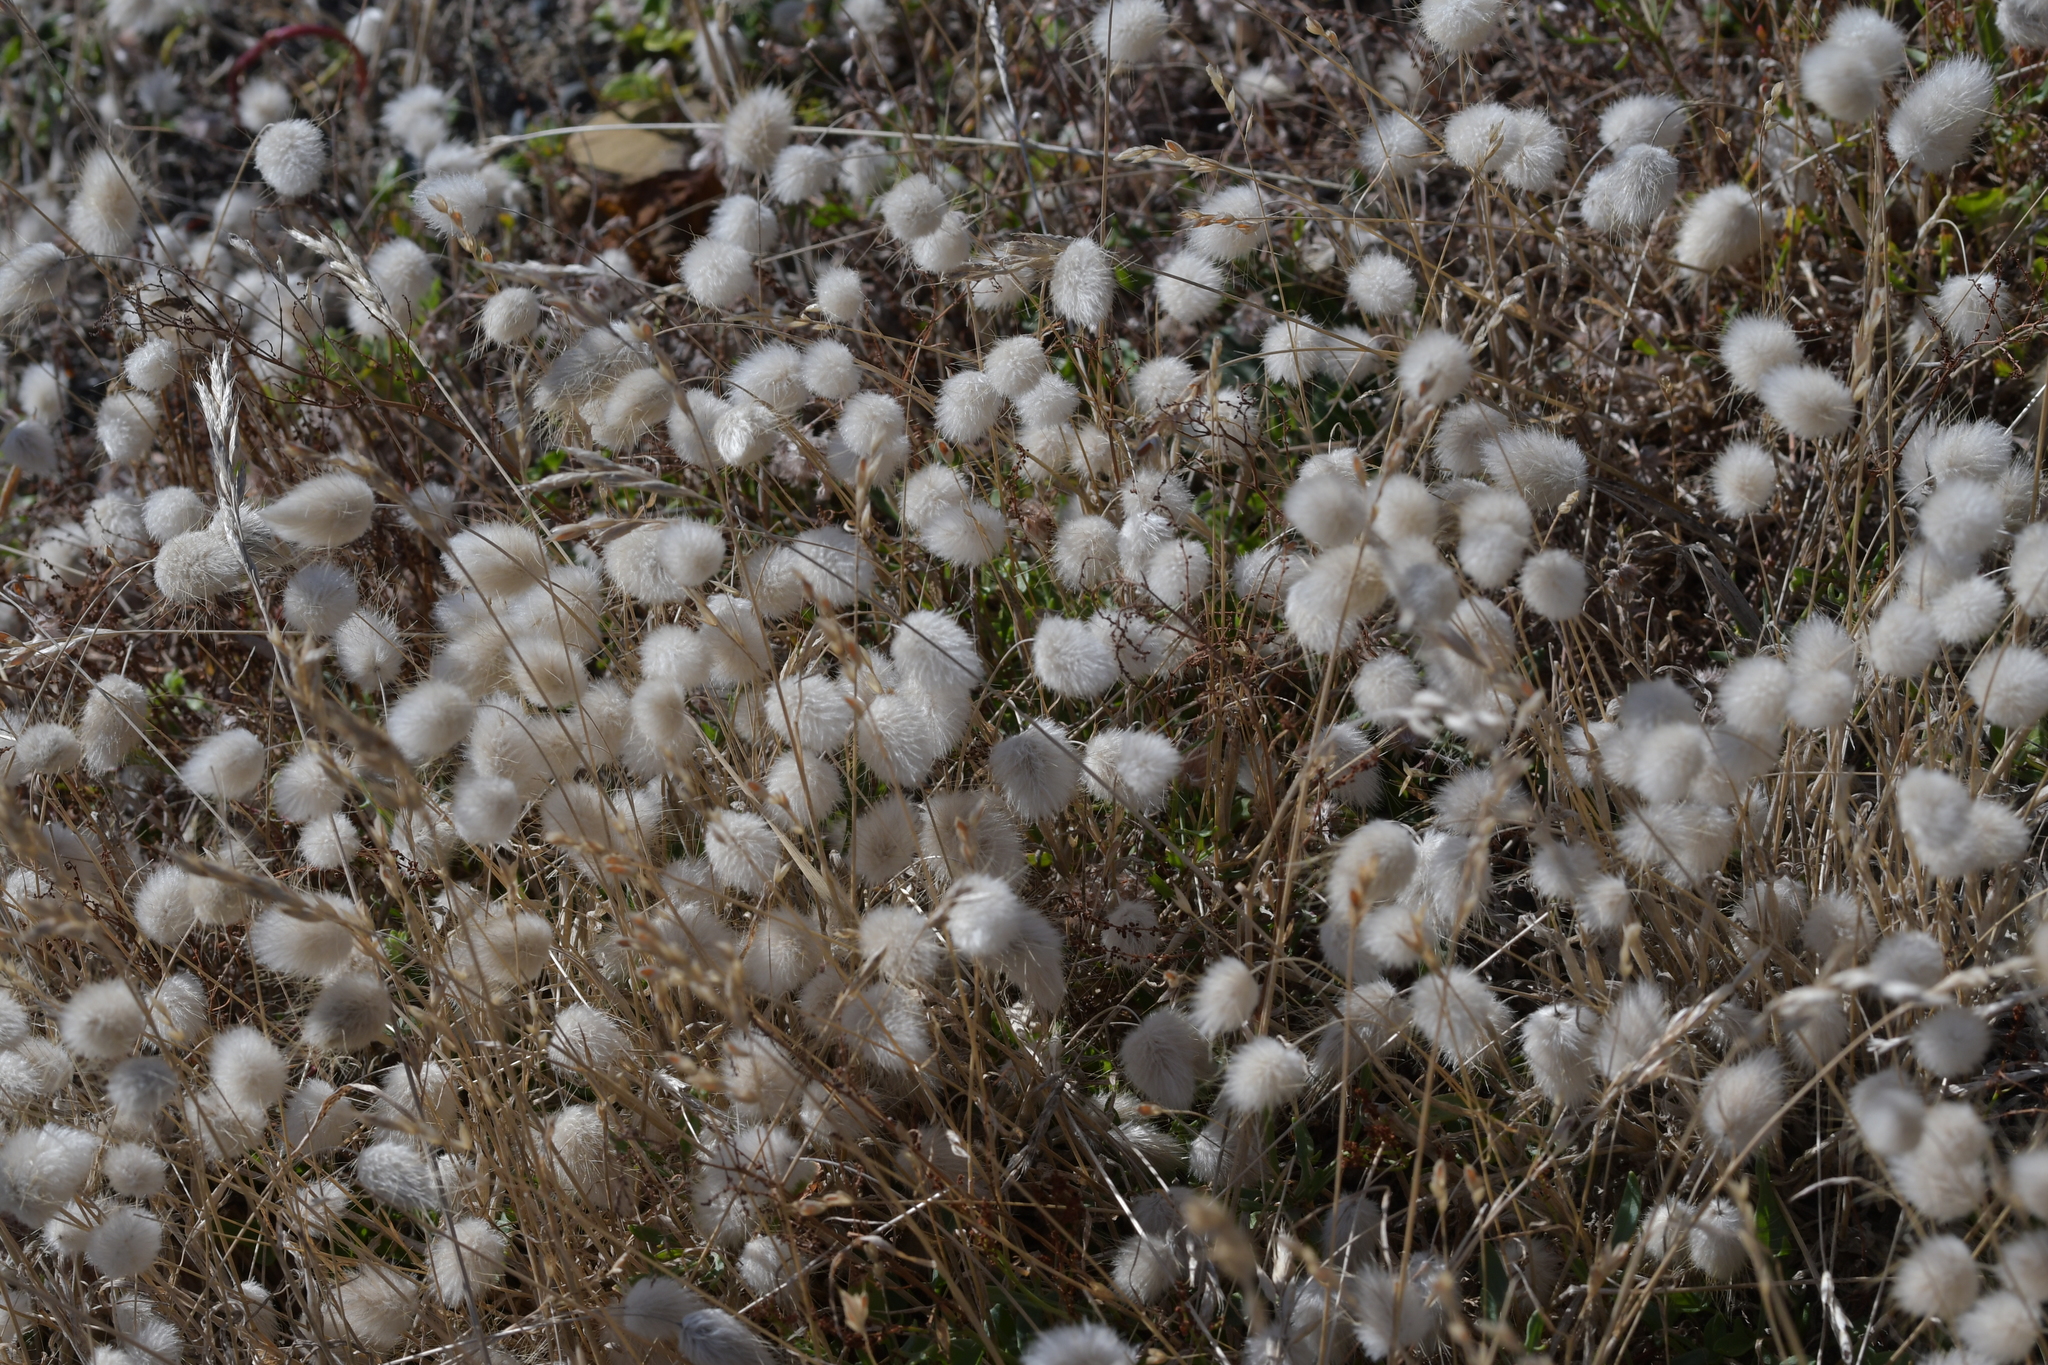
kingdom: Plantae
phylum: Tracheophyta
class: Liliopsida
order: Poales
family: Poaceae
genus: Lagurus
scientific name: Lagurus ovatus
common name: Hare's-tail
